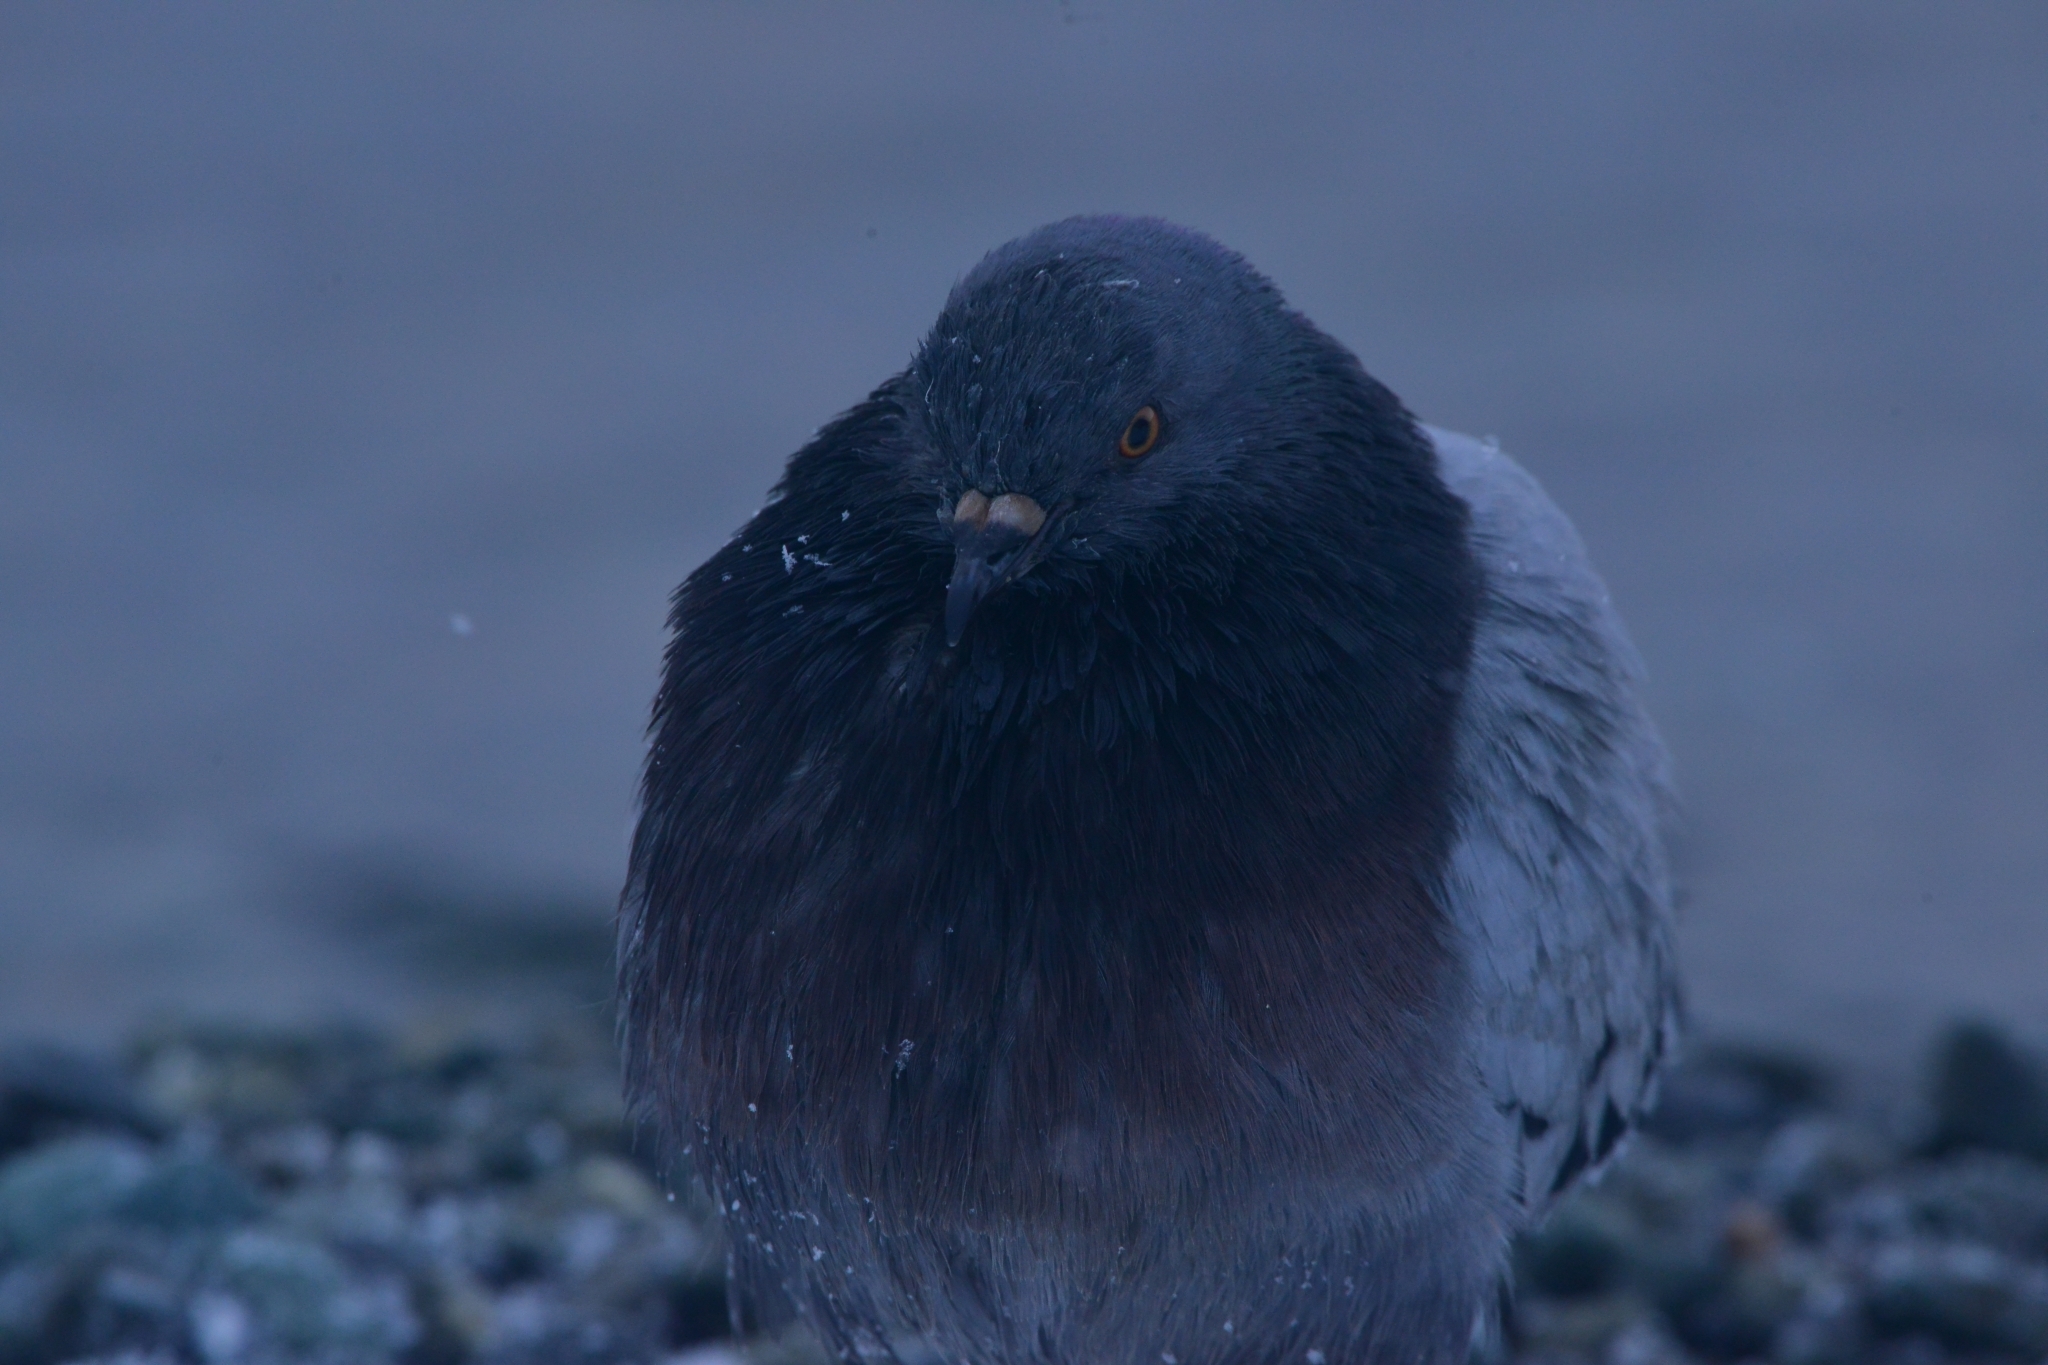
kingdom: Animalia
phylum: Chordata
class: Aves
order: Columbiformes
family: Columbidae
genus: Columba
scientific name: Columba livia
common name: Rock pigeon
